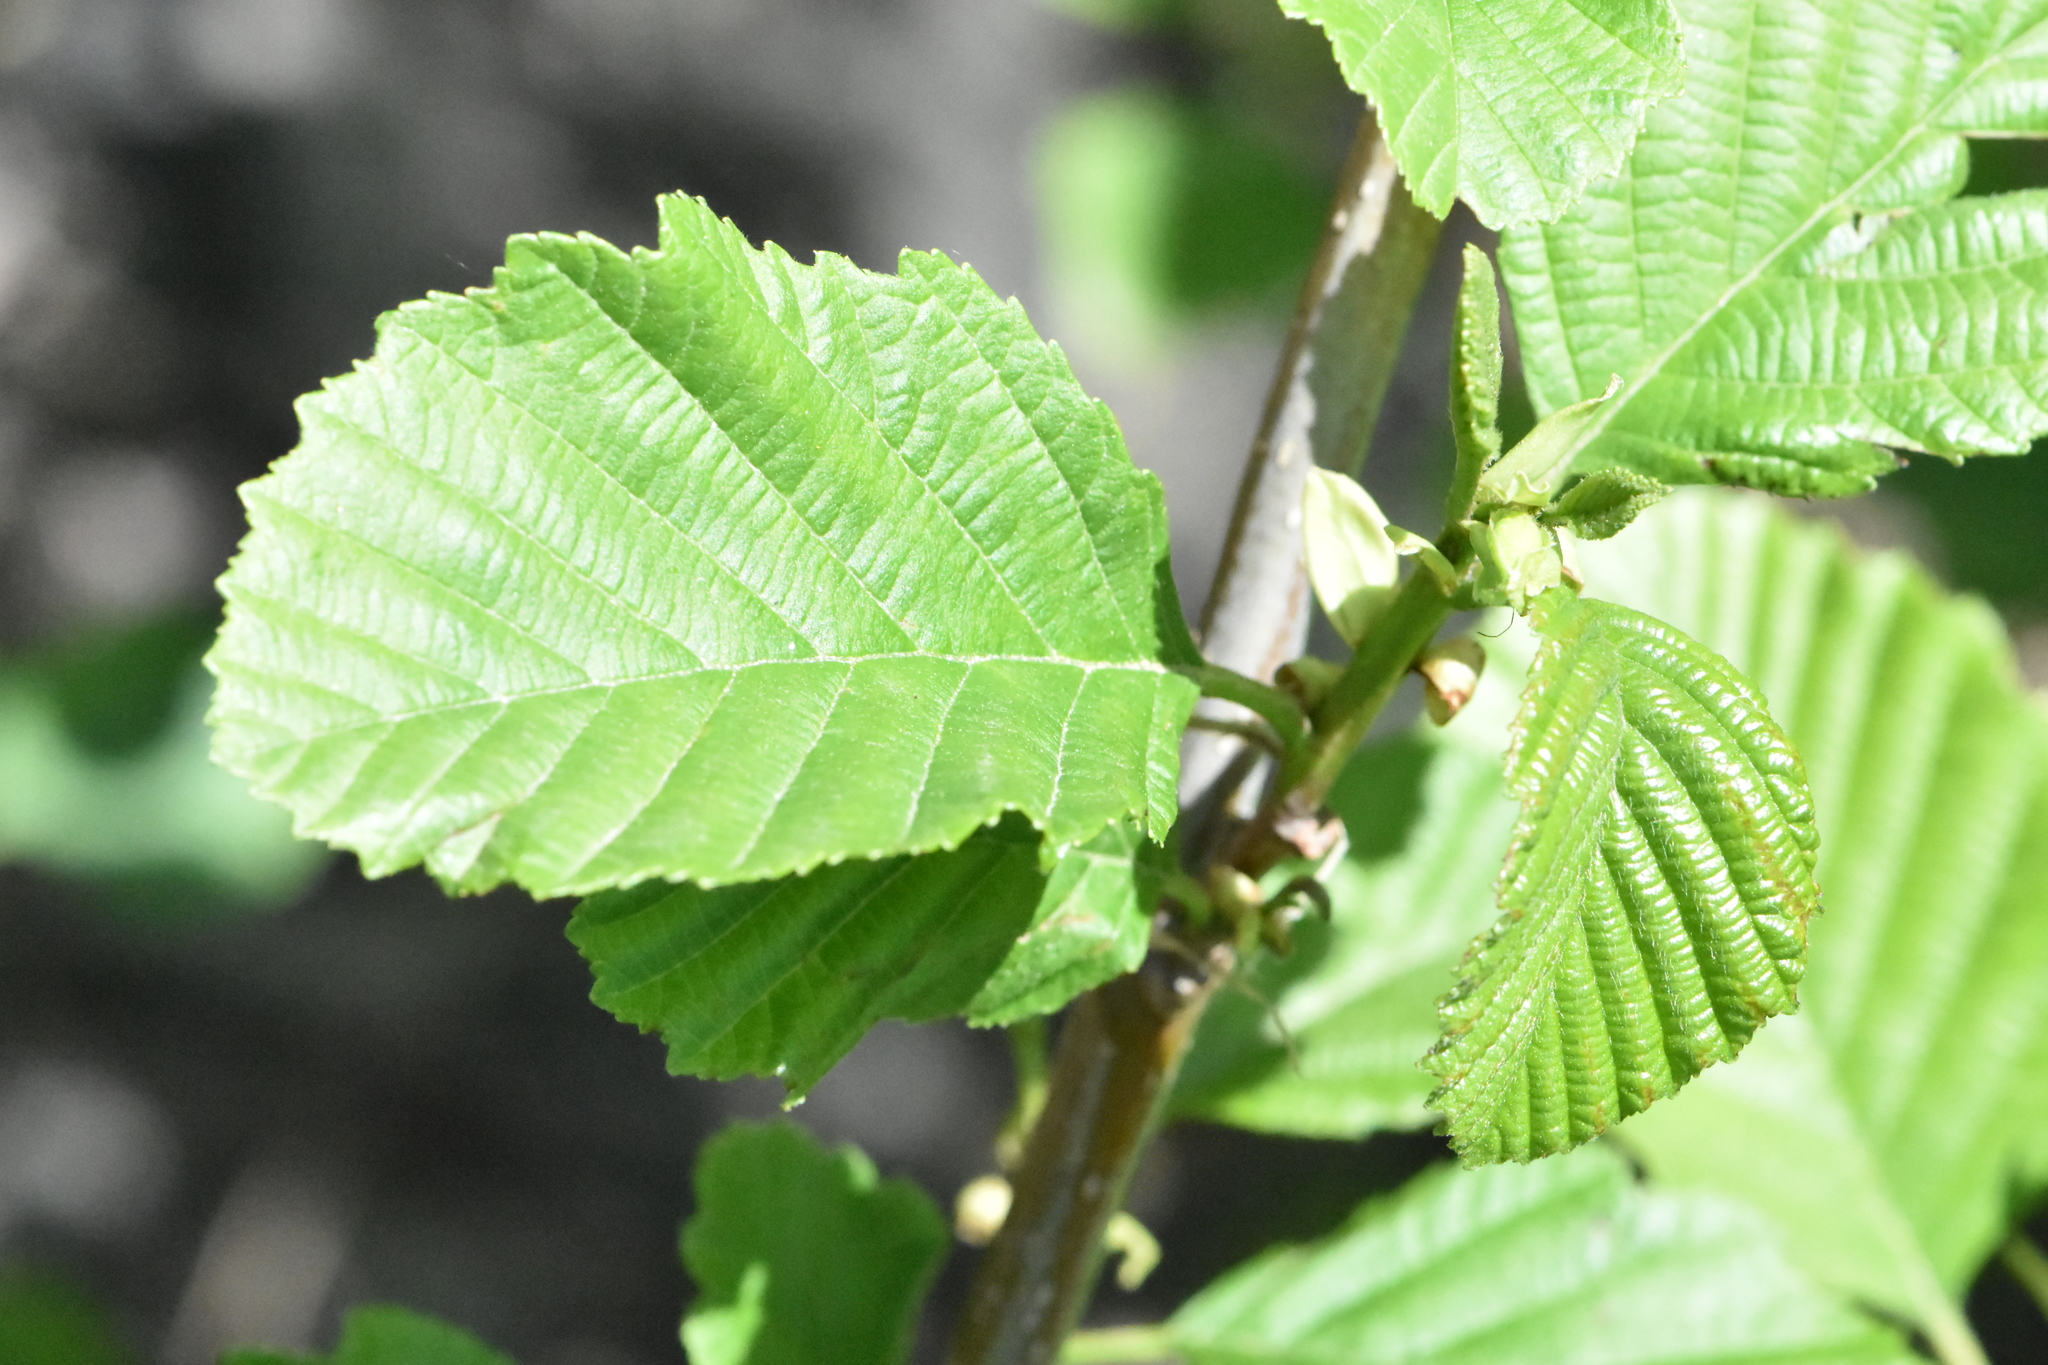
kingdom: Plantae
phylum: Tracheophyta
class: Magnoliopsida
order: Fagales
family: Betulaceae
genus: Alnus
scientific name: Alnus glutinosa
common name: Black alder
